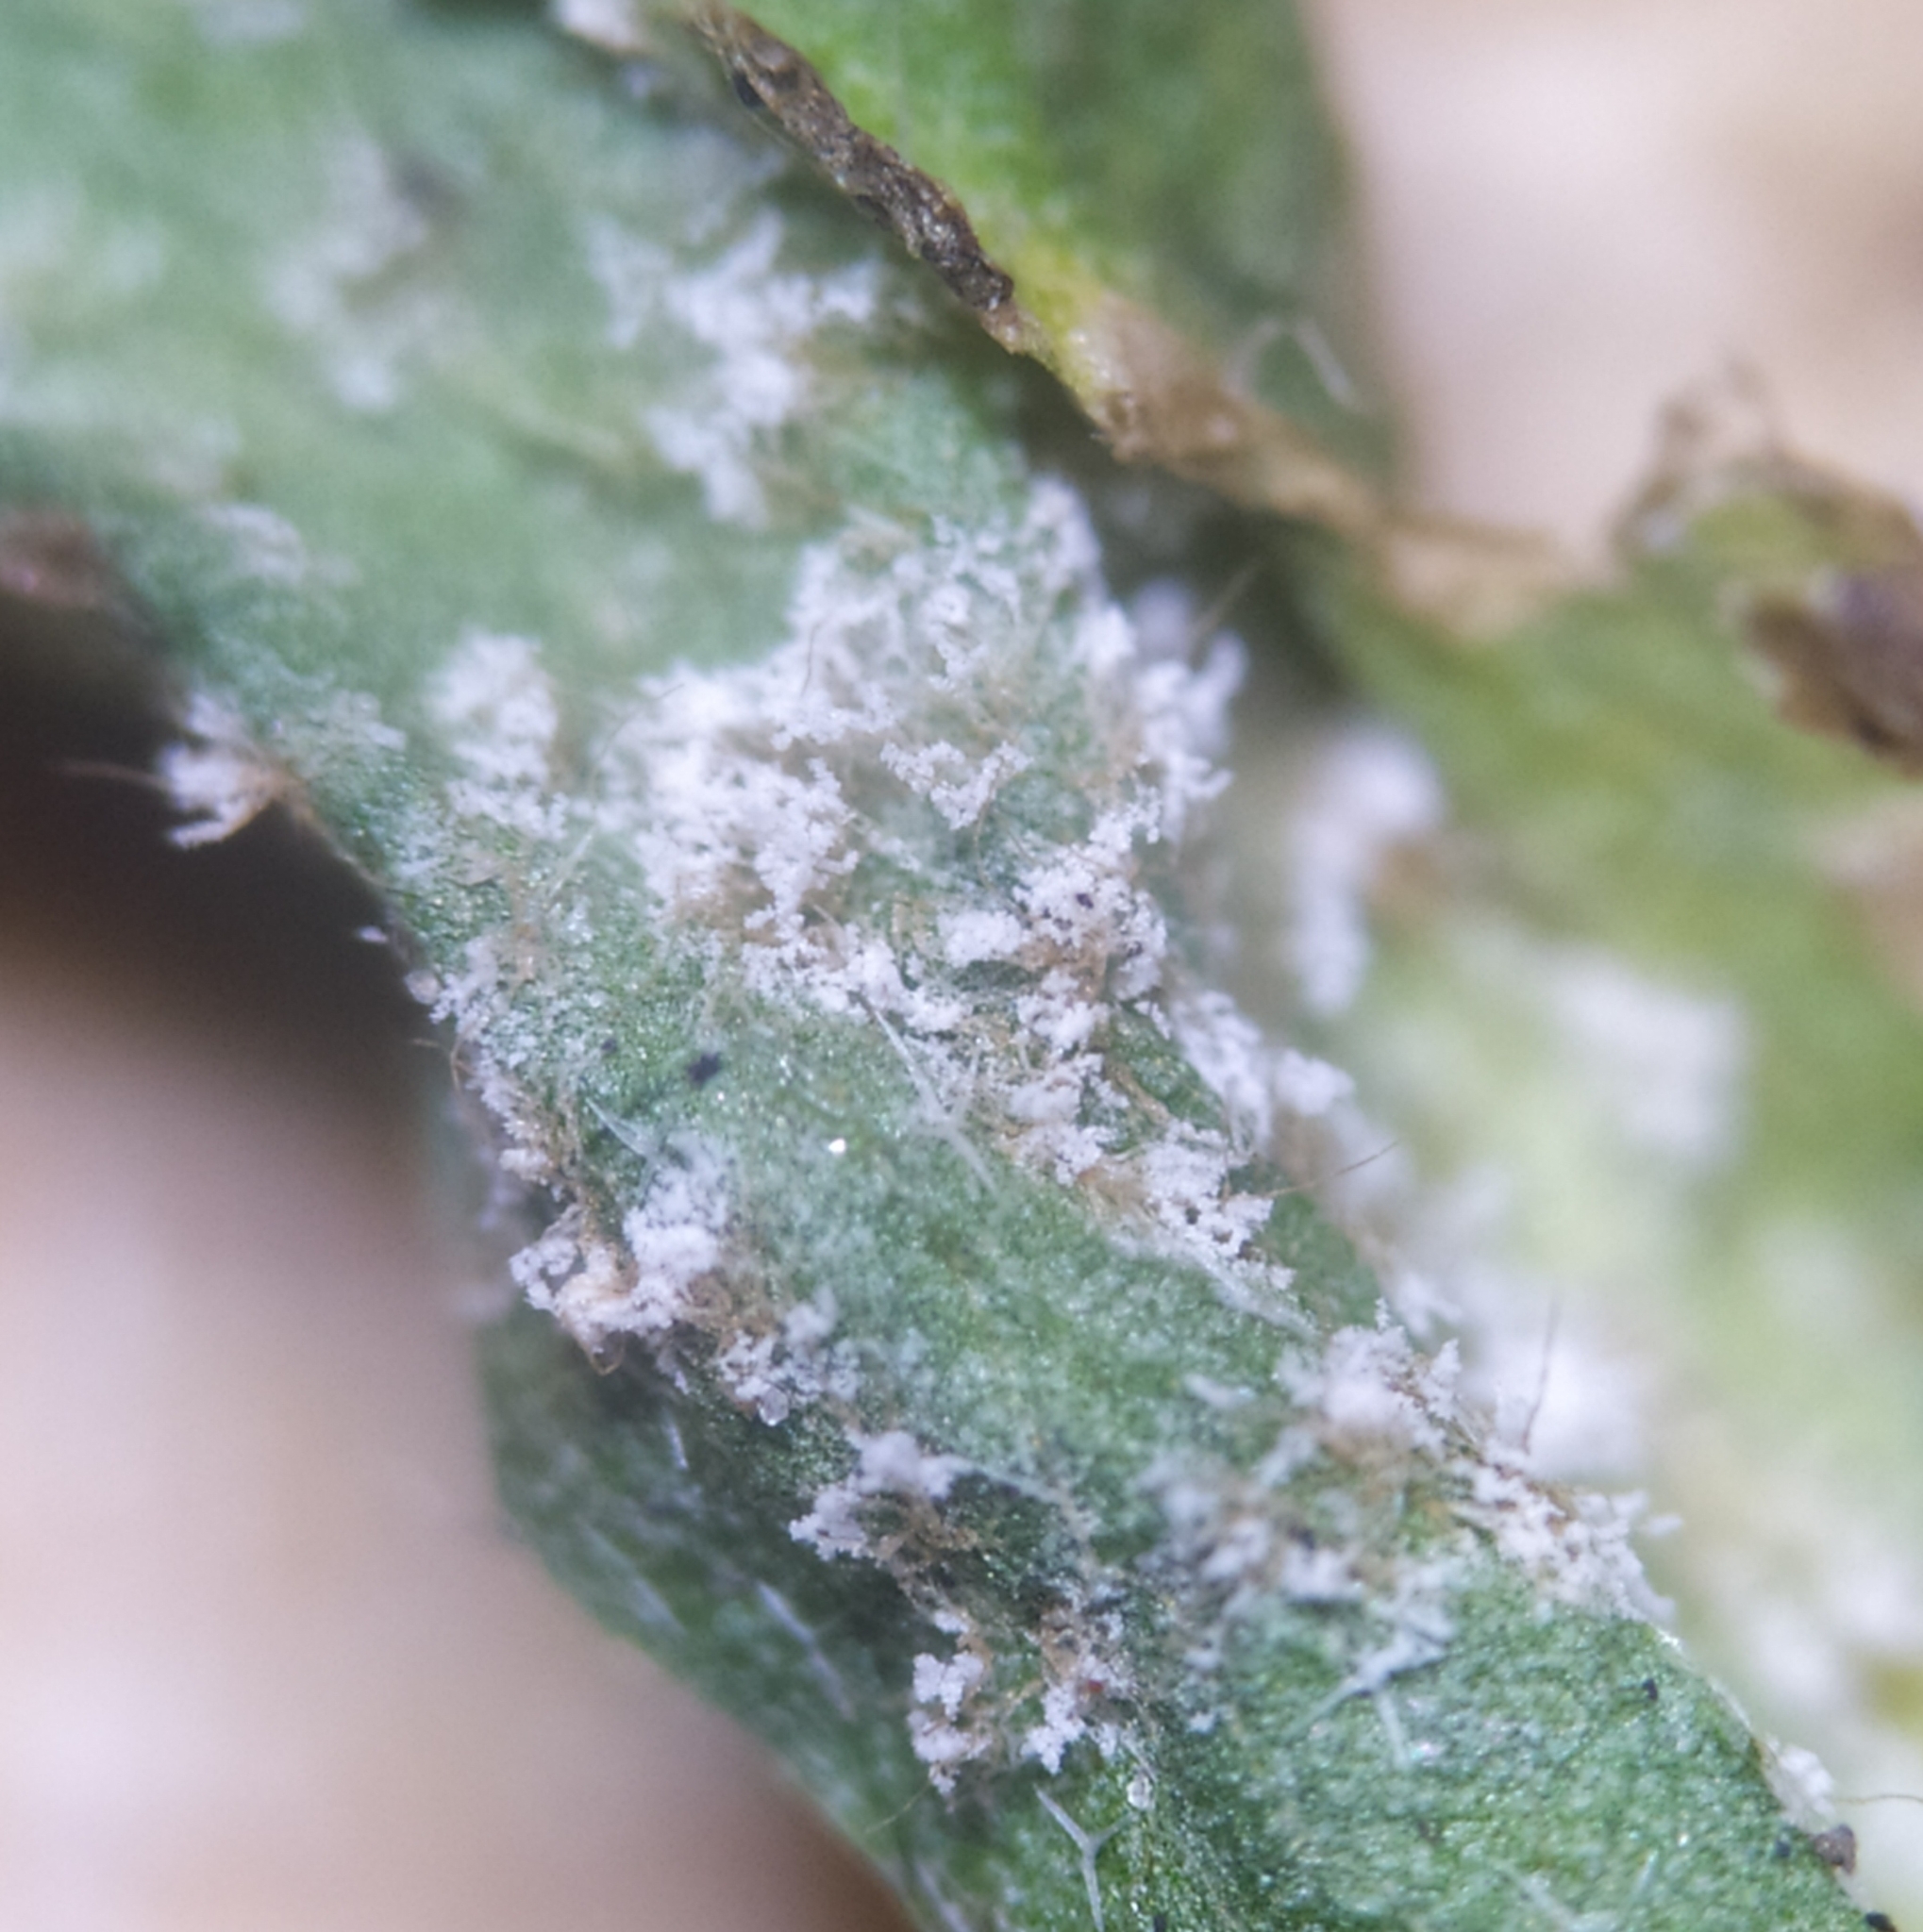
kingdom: Chromista
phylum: Oomycota
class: Peronosporea
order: Peronosporales
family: Peronosporaceae
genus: Hyaloperonospora
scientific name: Hyaloperonospora parasitica
